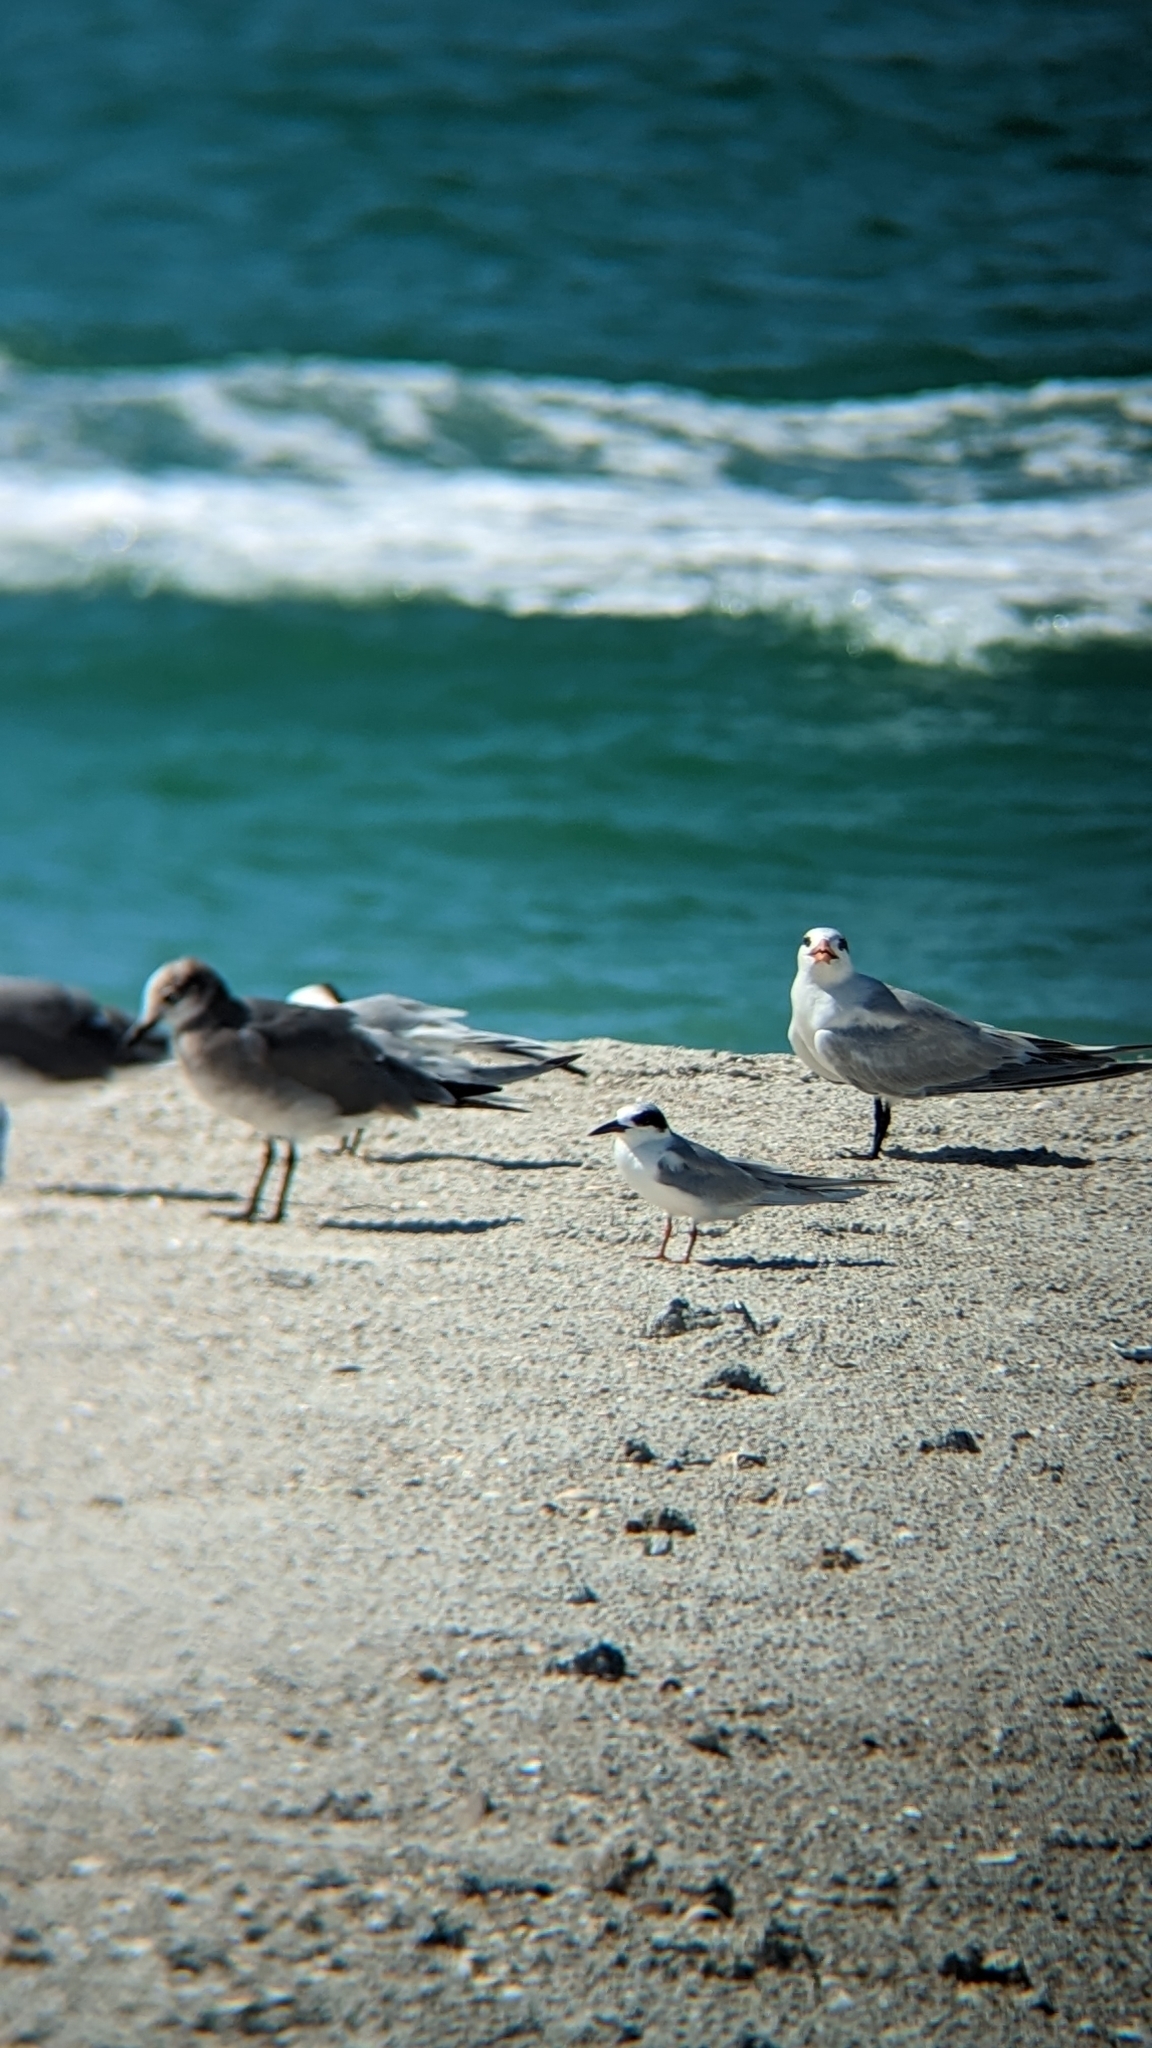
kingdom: Animalia
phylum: Chordata
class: Aves
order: Charadriiformes
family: Laridae
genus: Leucophaeus
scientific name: Leucophaeus atricilla
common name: Laughing gull
